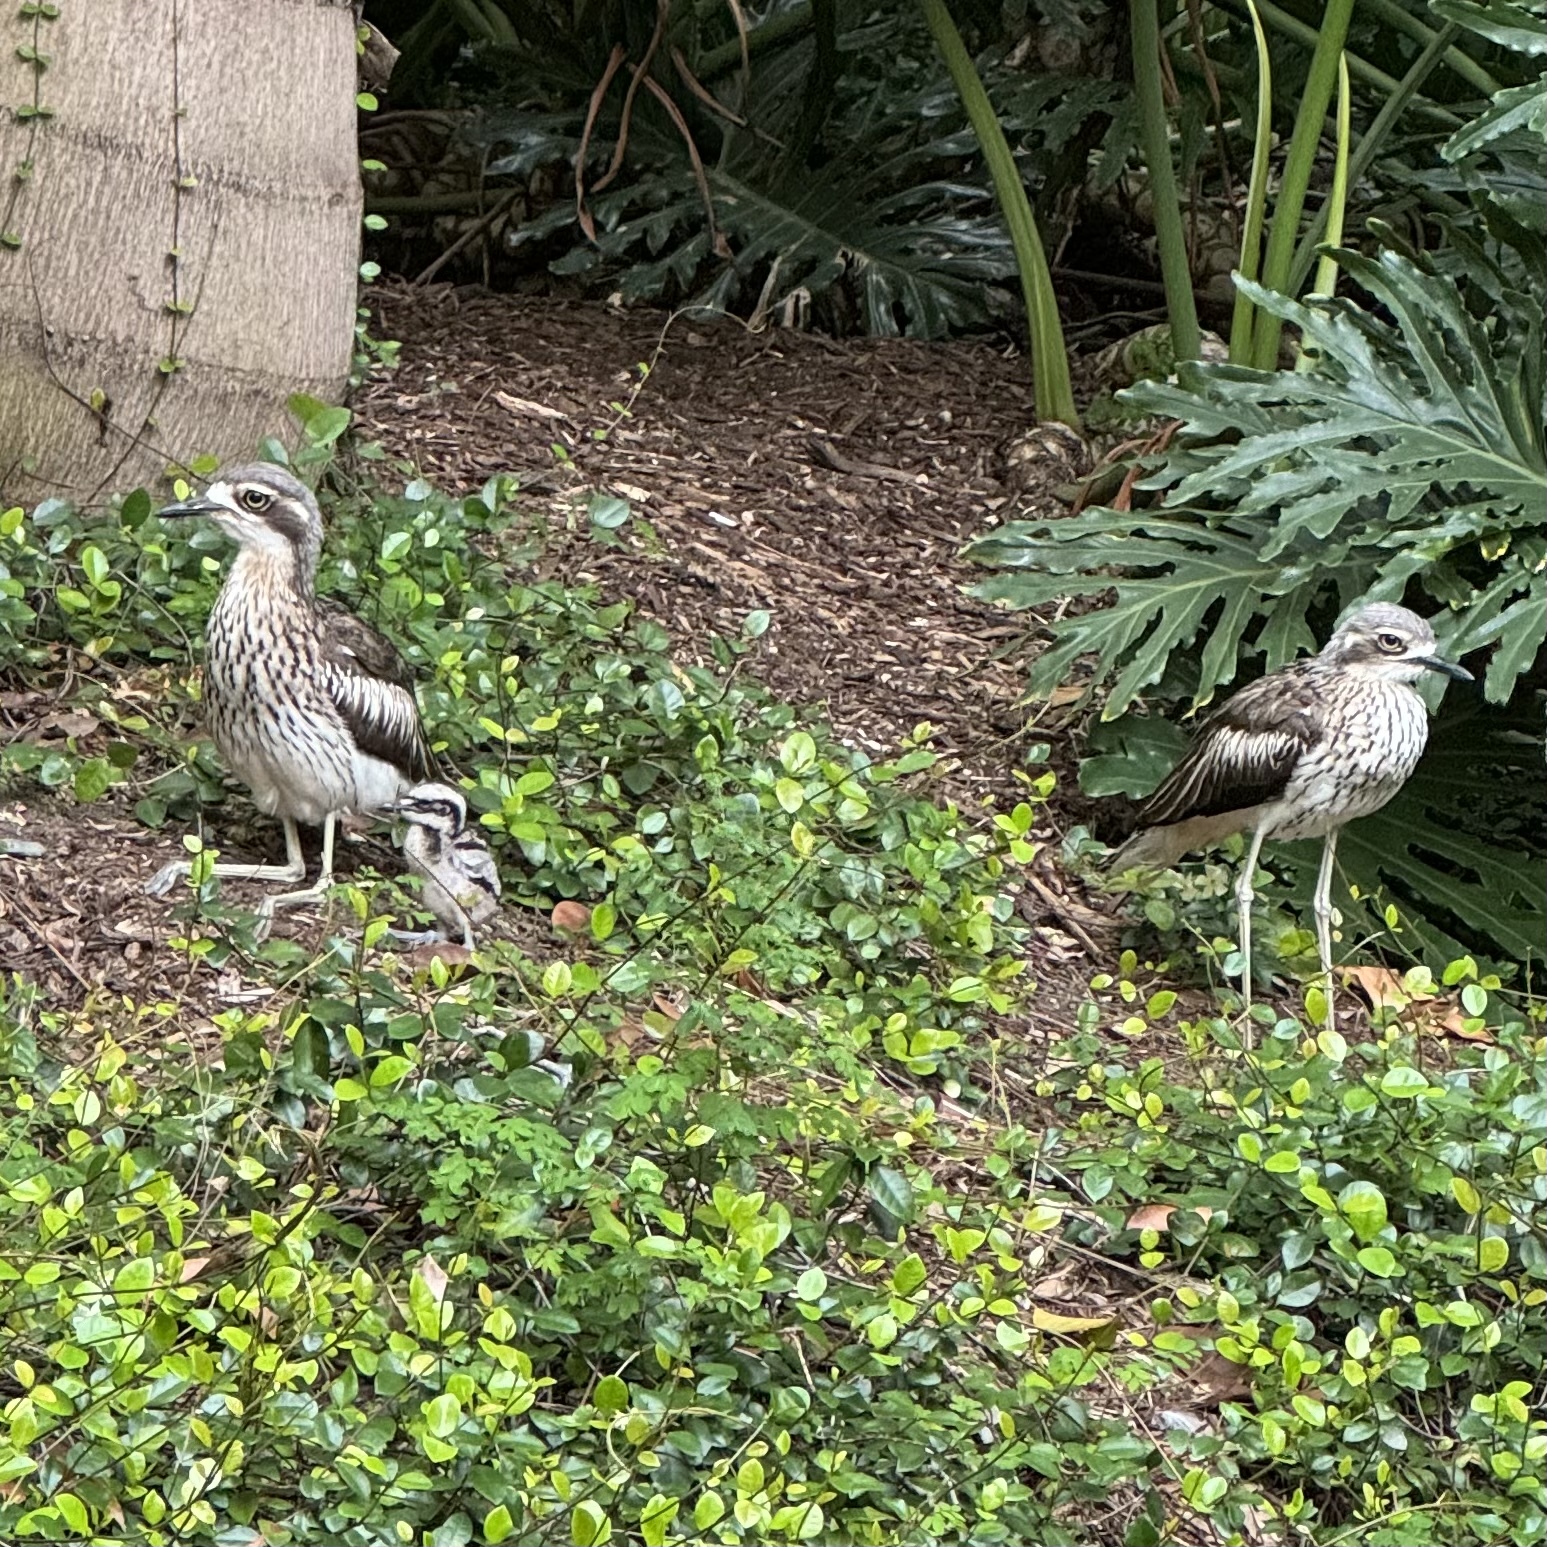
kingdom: Animalia
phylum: Chordata
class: Aves
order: Charadriiformes
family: Burhinidae
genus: Burhinus
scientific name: Burhinus grallarius
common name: Bush stone-curlew
